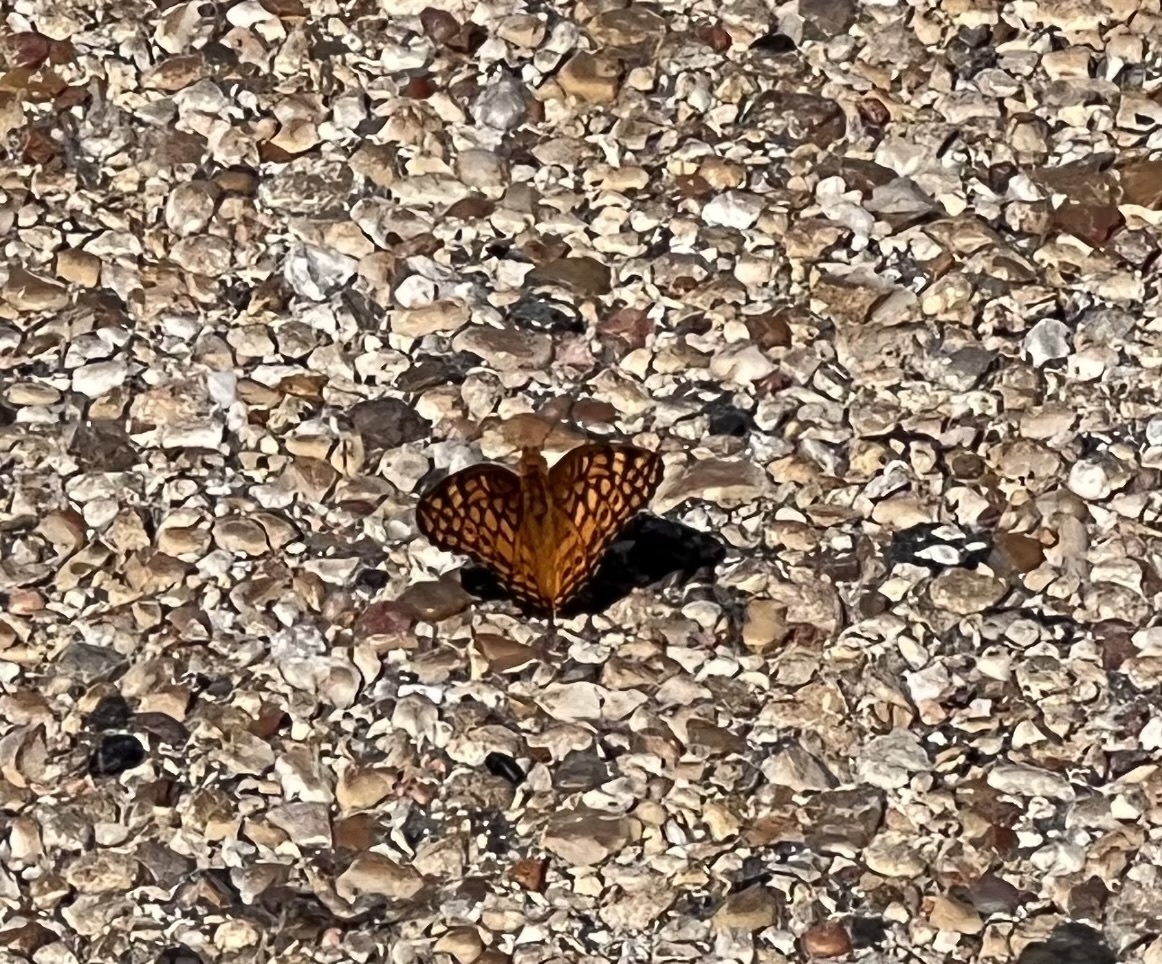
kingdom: Animalia
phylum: Arthropoda
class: Insecta
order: Lepidoptera
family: Nymphalidae
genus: Euptoieta
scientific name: Euptoieta claudia
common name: Variegated fritillary
